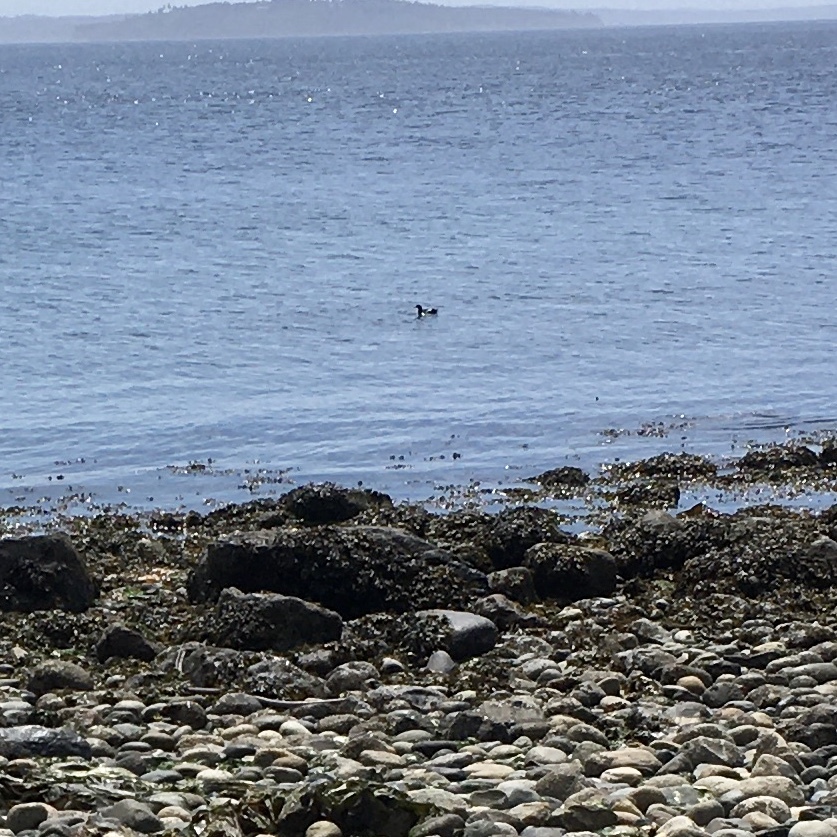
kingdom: Animalia
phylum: Chordata
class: Aves
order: Charadriiformes
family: Alcidae
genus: Cepphus
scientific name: Cepphus columba
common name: Pigeon guillemot
